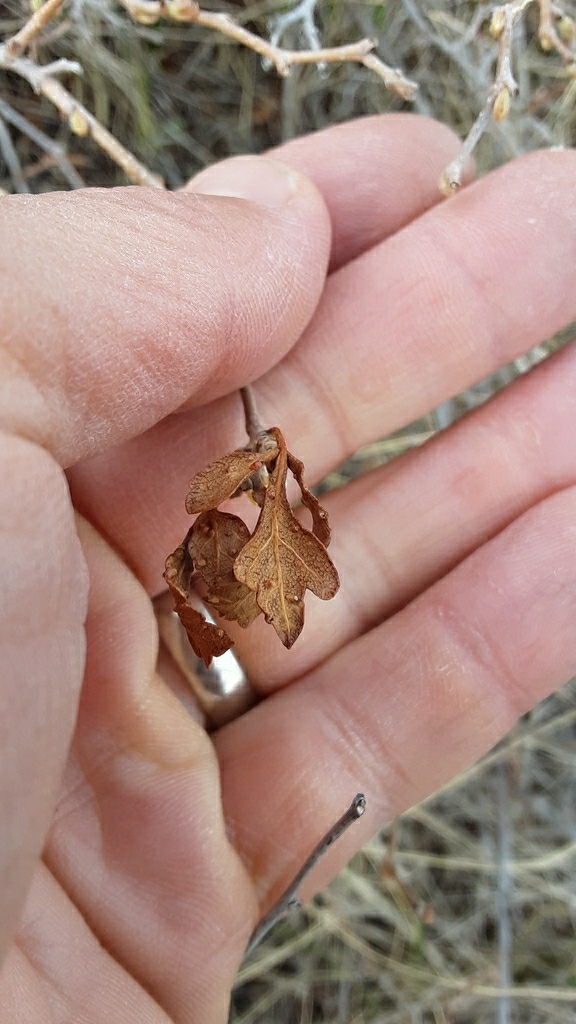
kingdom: Animalia
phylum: Arthropoda
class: Arachnida
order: Trombidiformes
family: Eriophyidae
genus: Aculops
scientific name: Aculops
